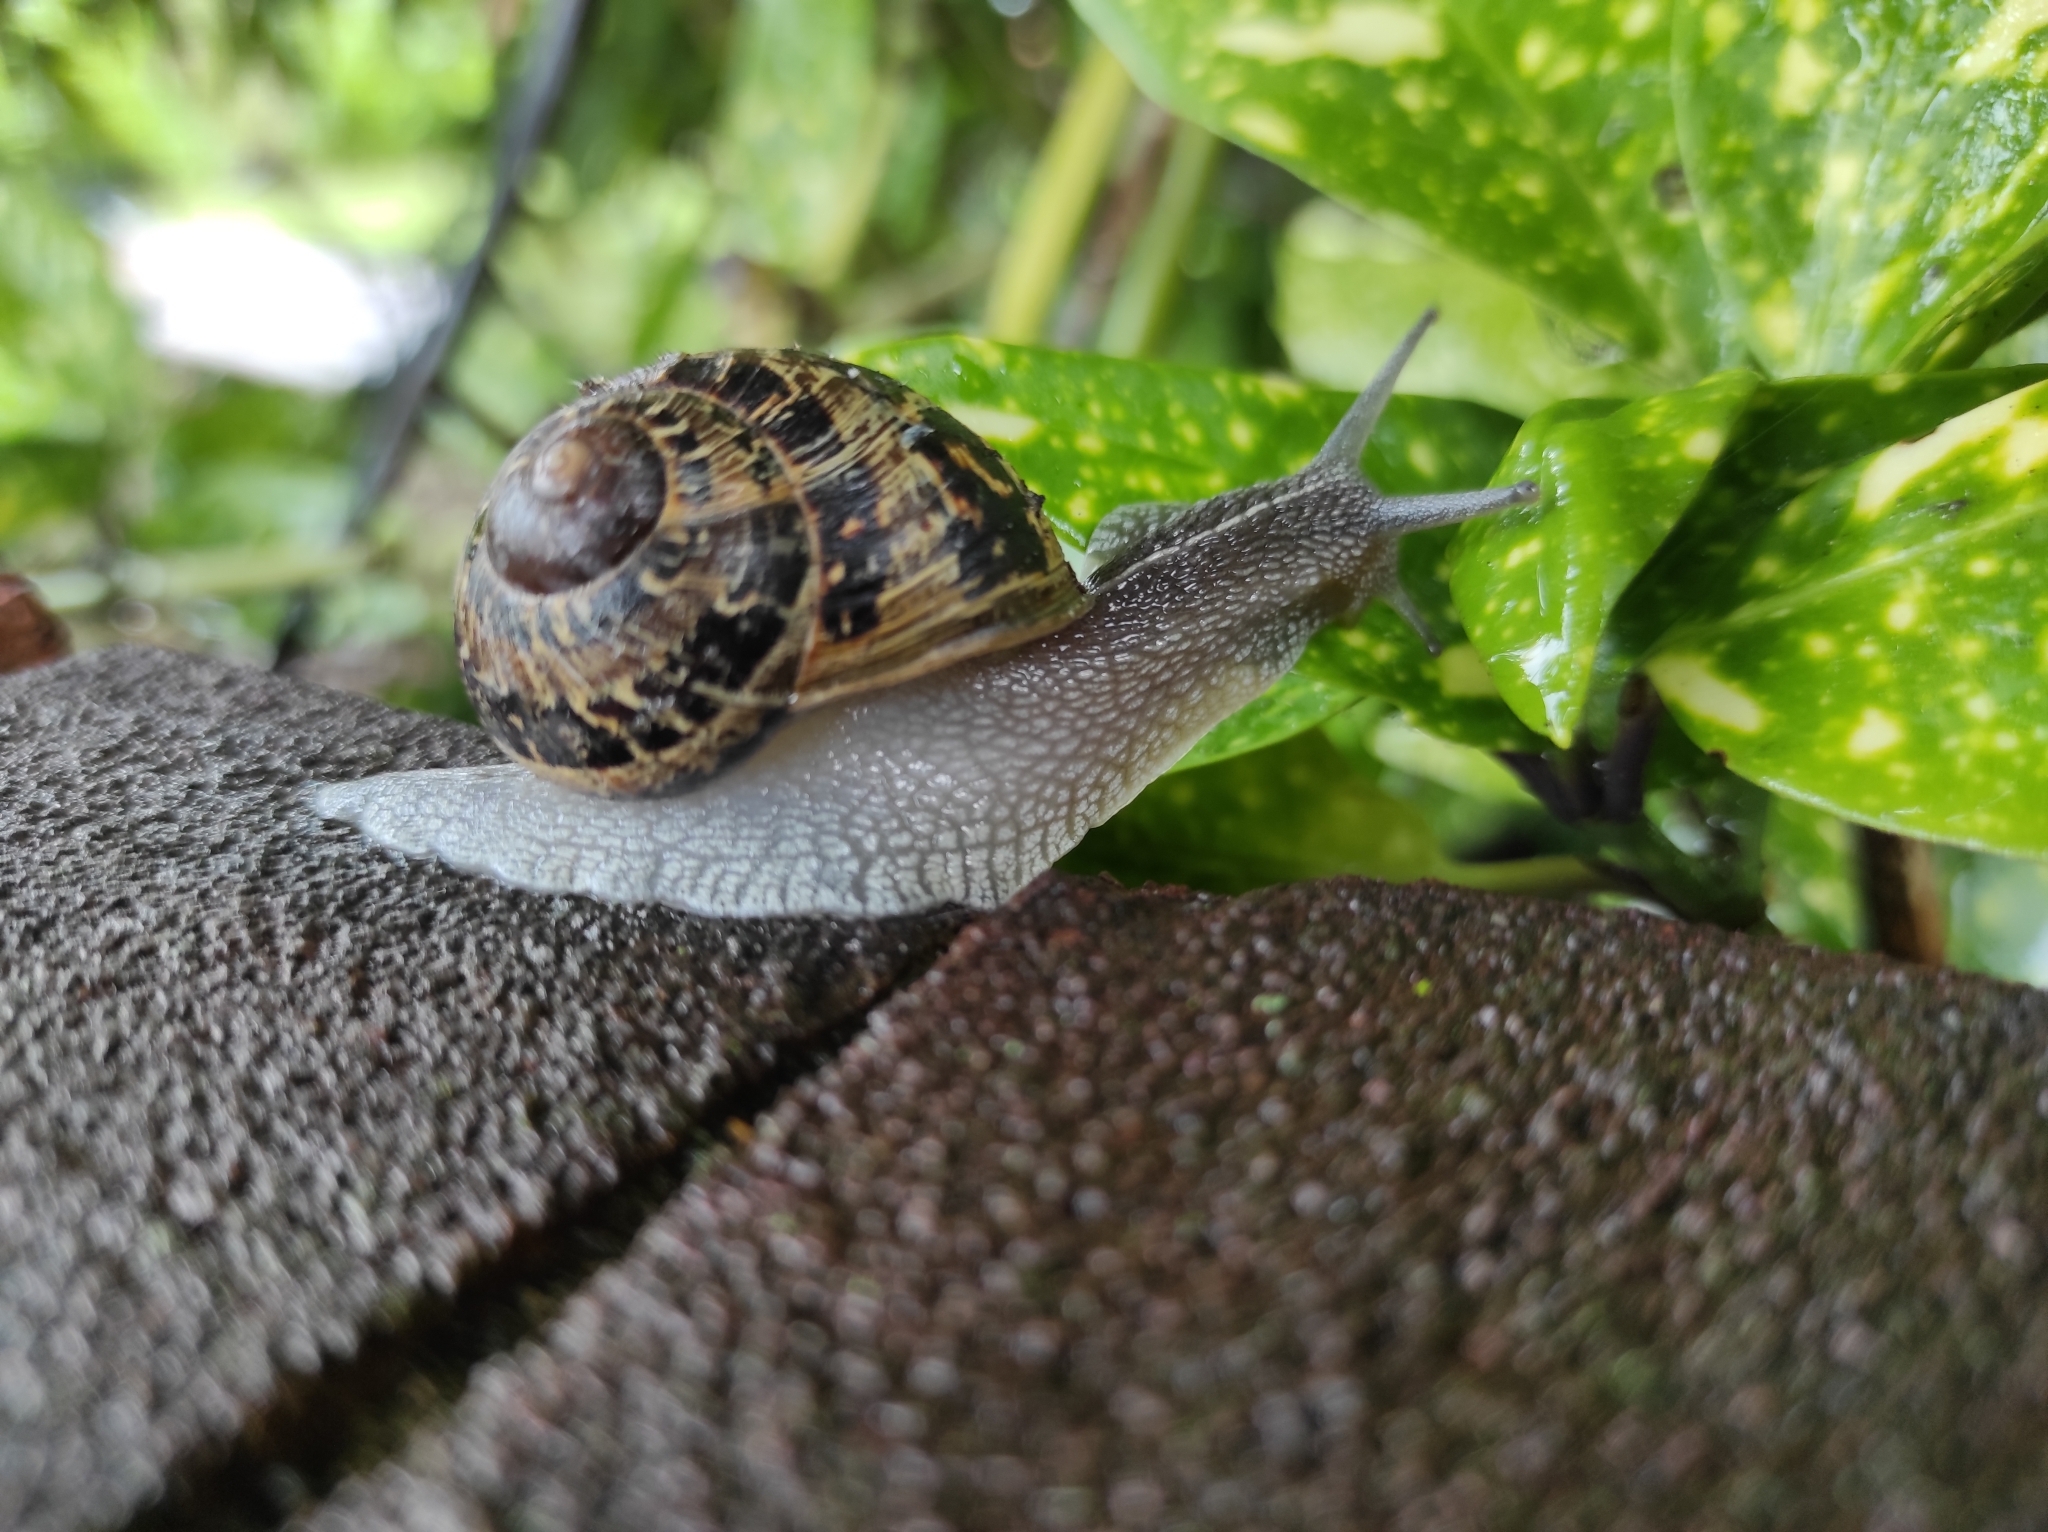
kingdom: Animalia
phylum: Mollusca
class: Gastropoda
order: Stylommatophora
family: Helicidae
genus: Cornu
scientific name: Cornu aspersum
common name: Brown garden snail
